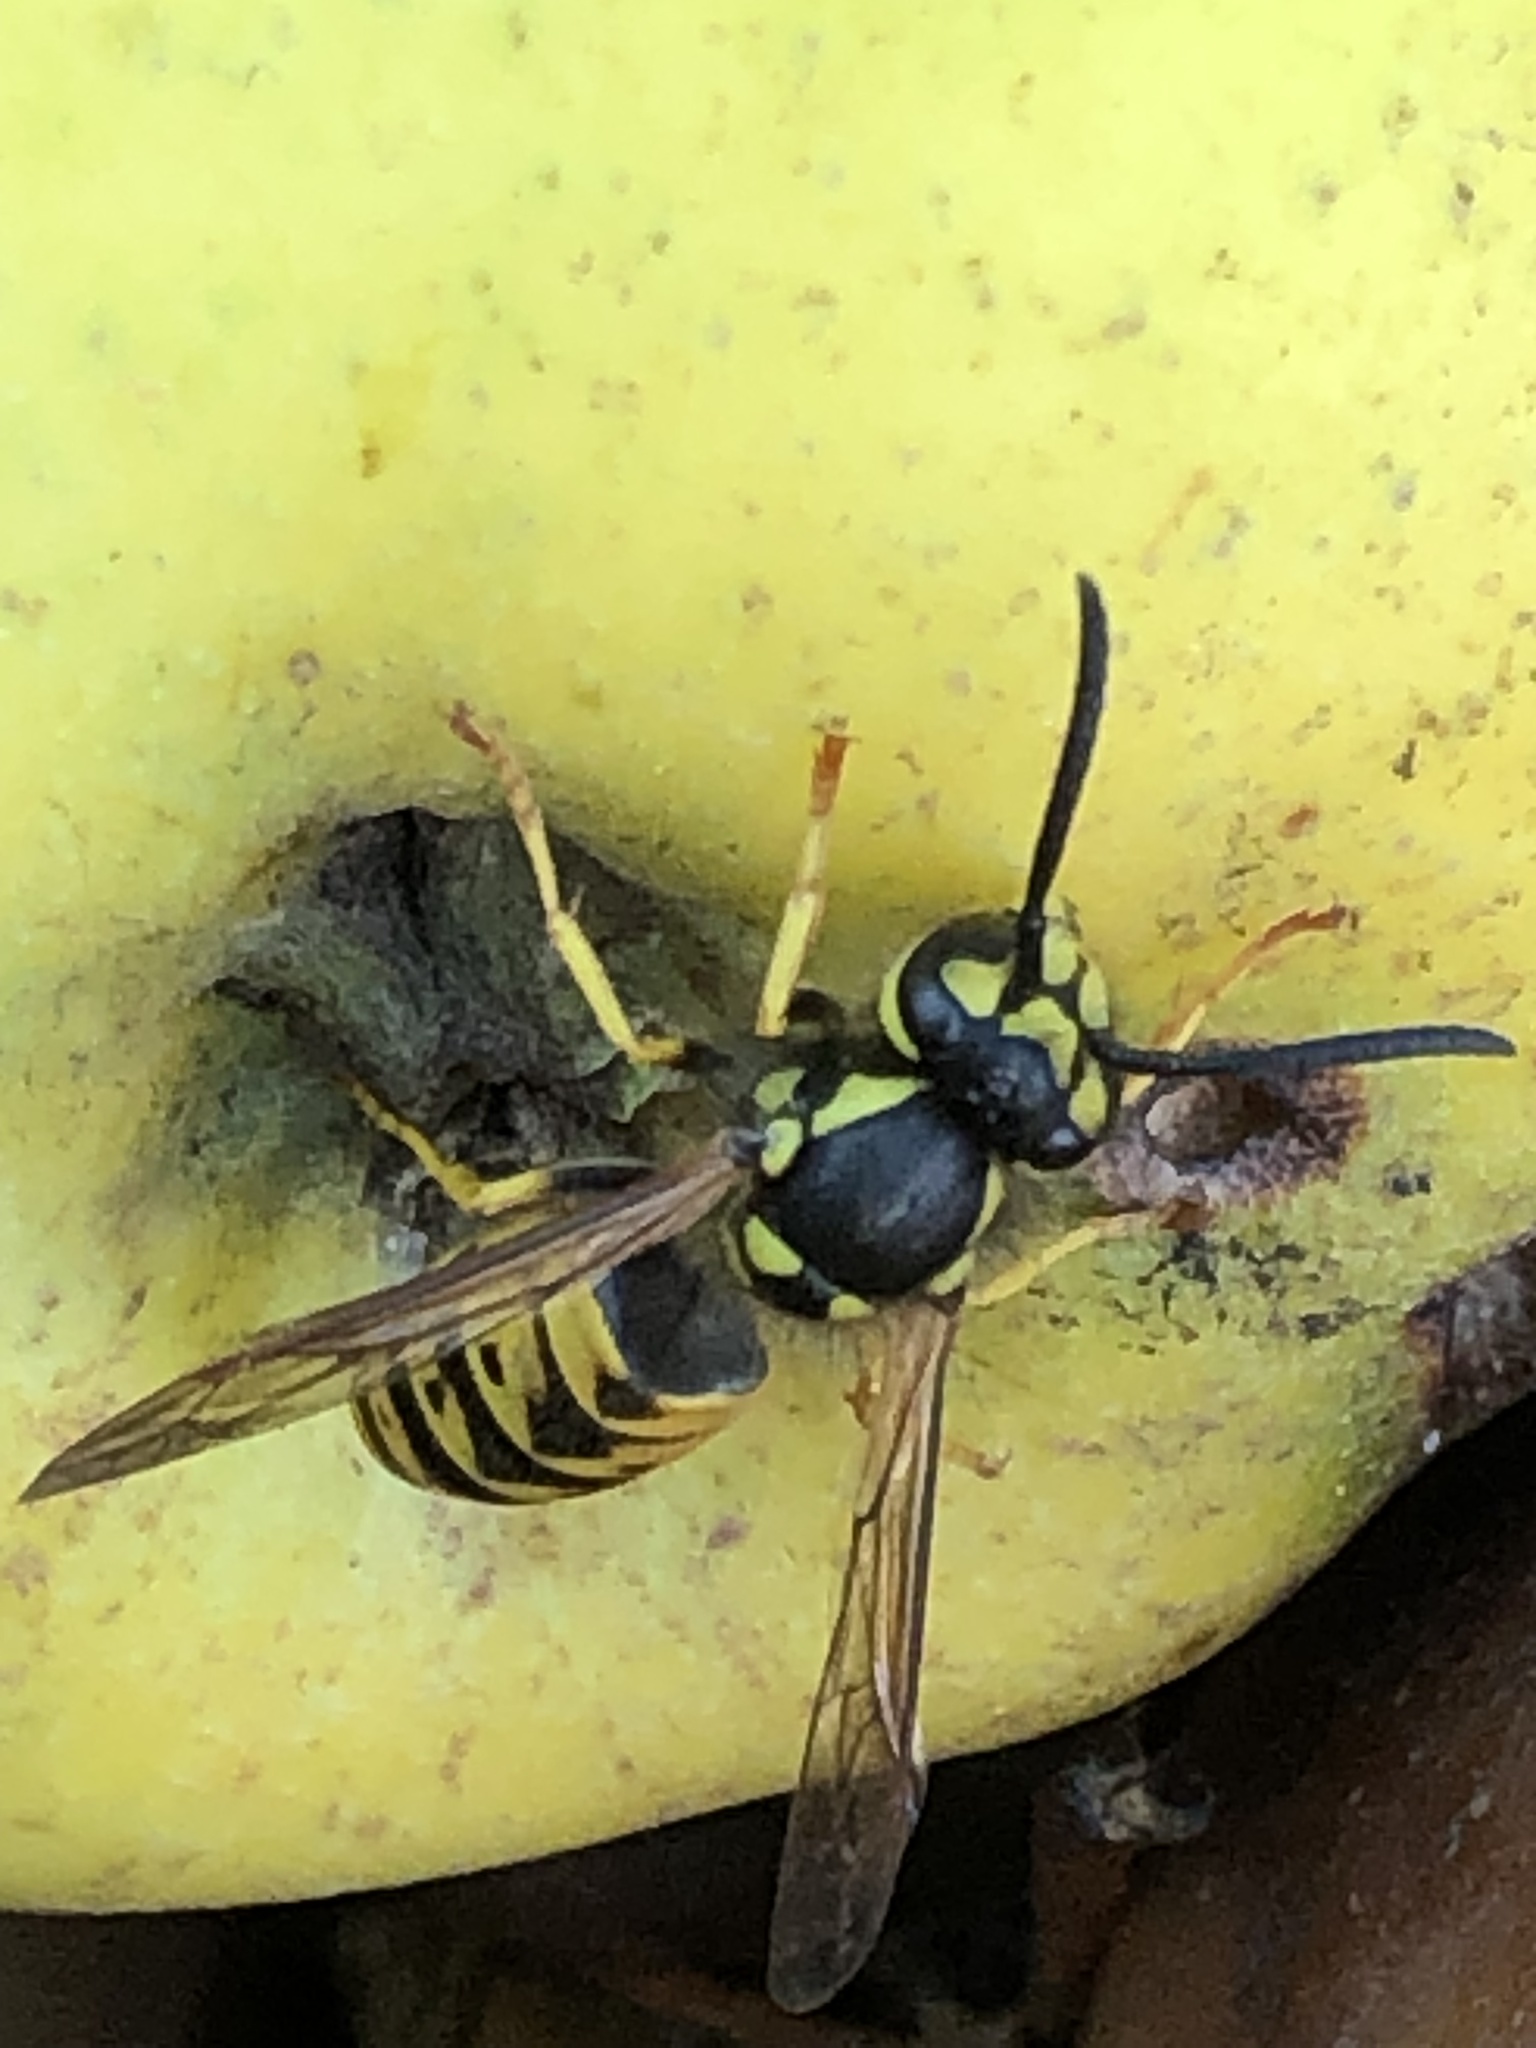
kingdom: Animalia
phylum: Arthropoda
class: Insecta
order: Hymenoptera
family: Vespidae
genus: Vespula
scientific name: Vespula germanica
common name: German wasp
